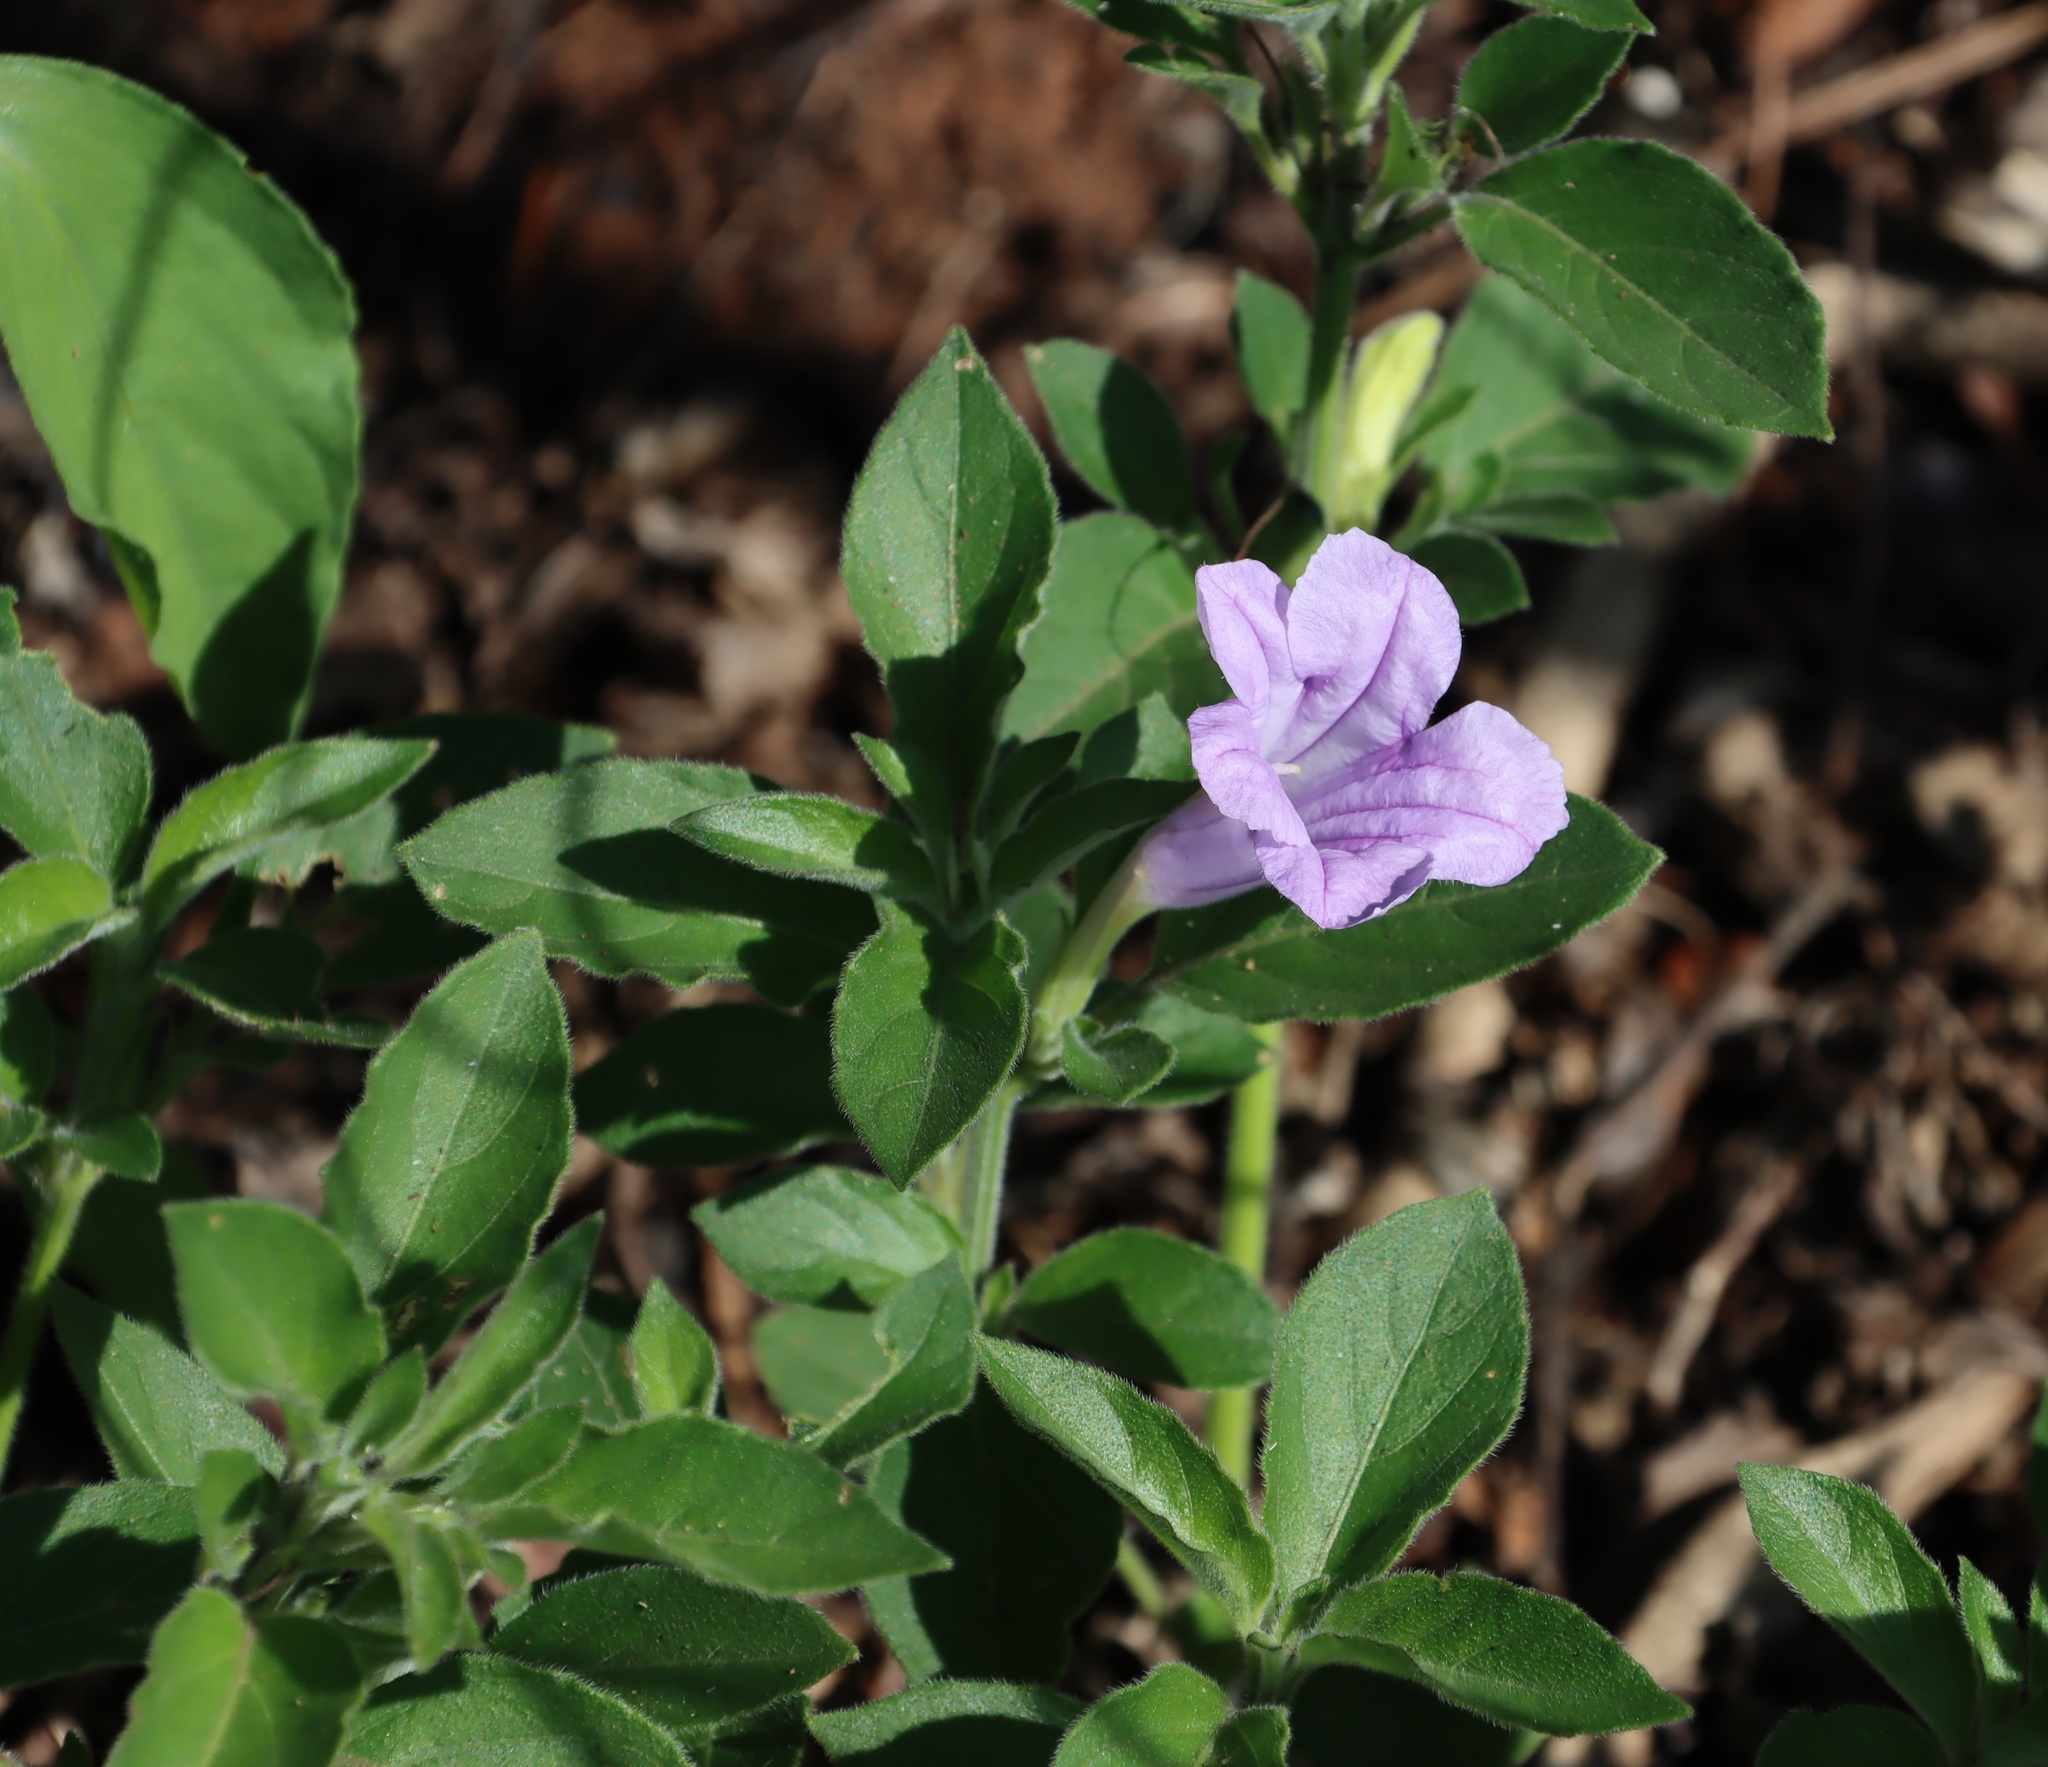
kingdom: Plantae
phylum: Tracheophyta
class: Magnoliopsida
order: Lamiales
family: Acanthaceae
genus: Ruellia
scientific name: Ruellia cordata
